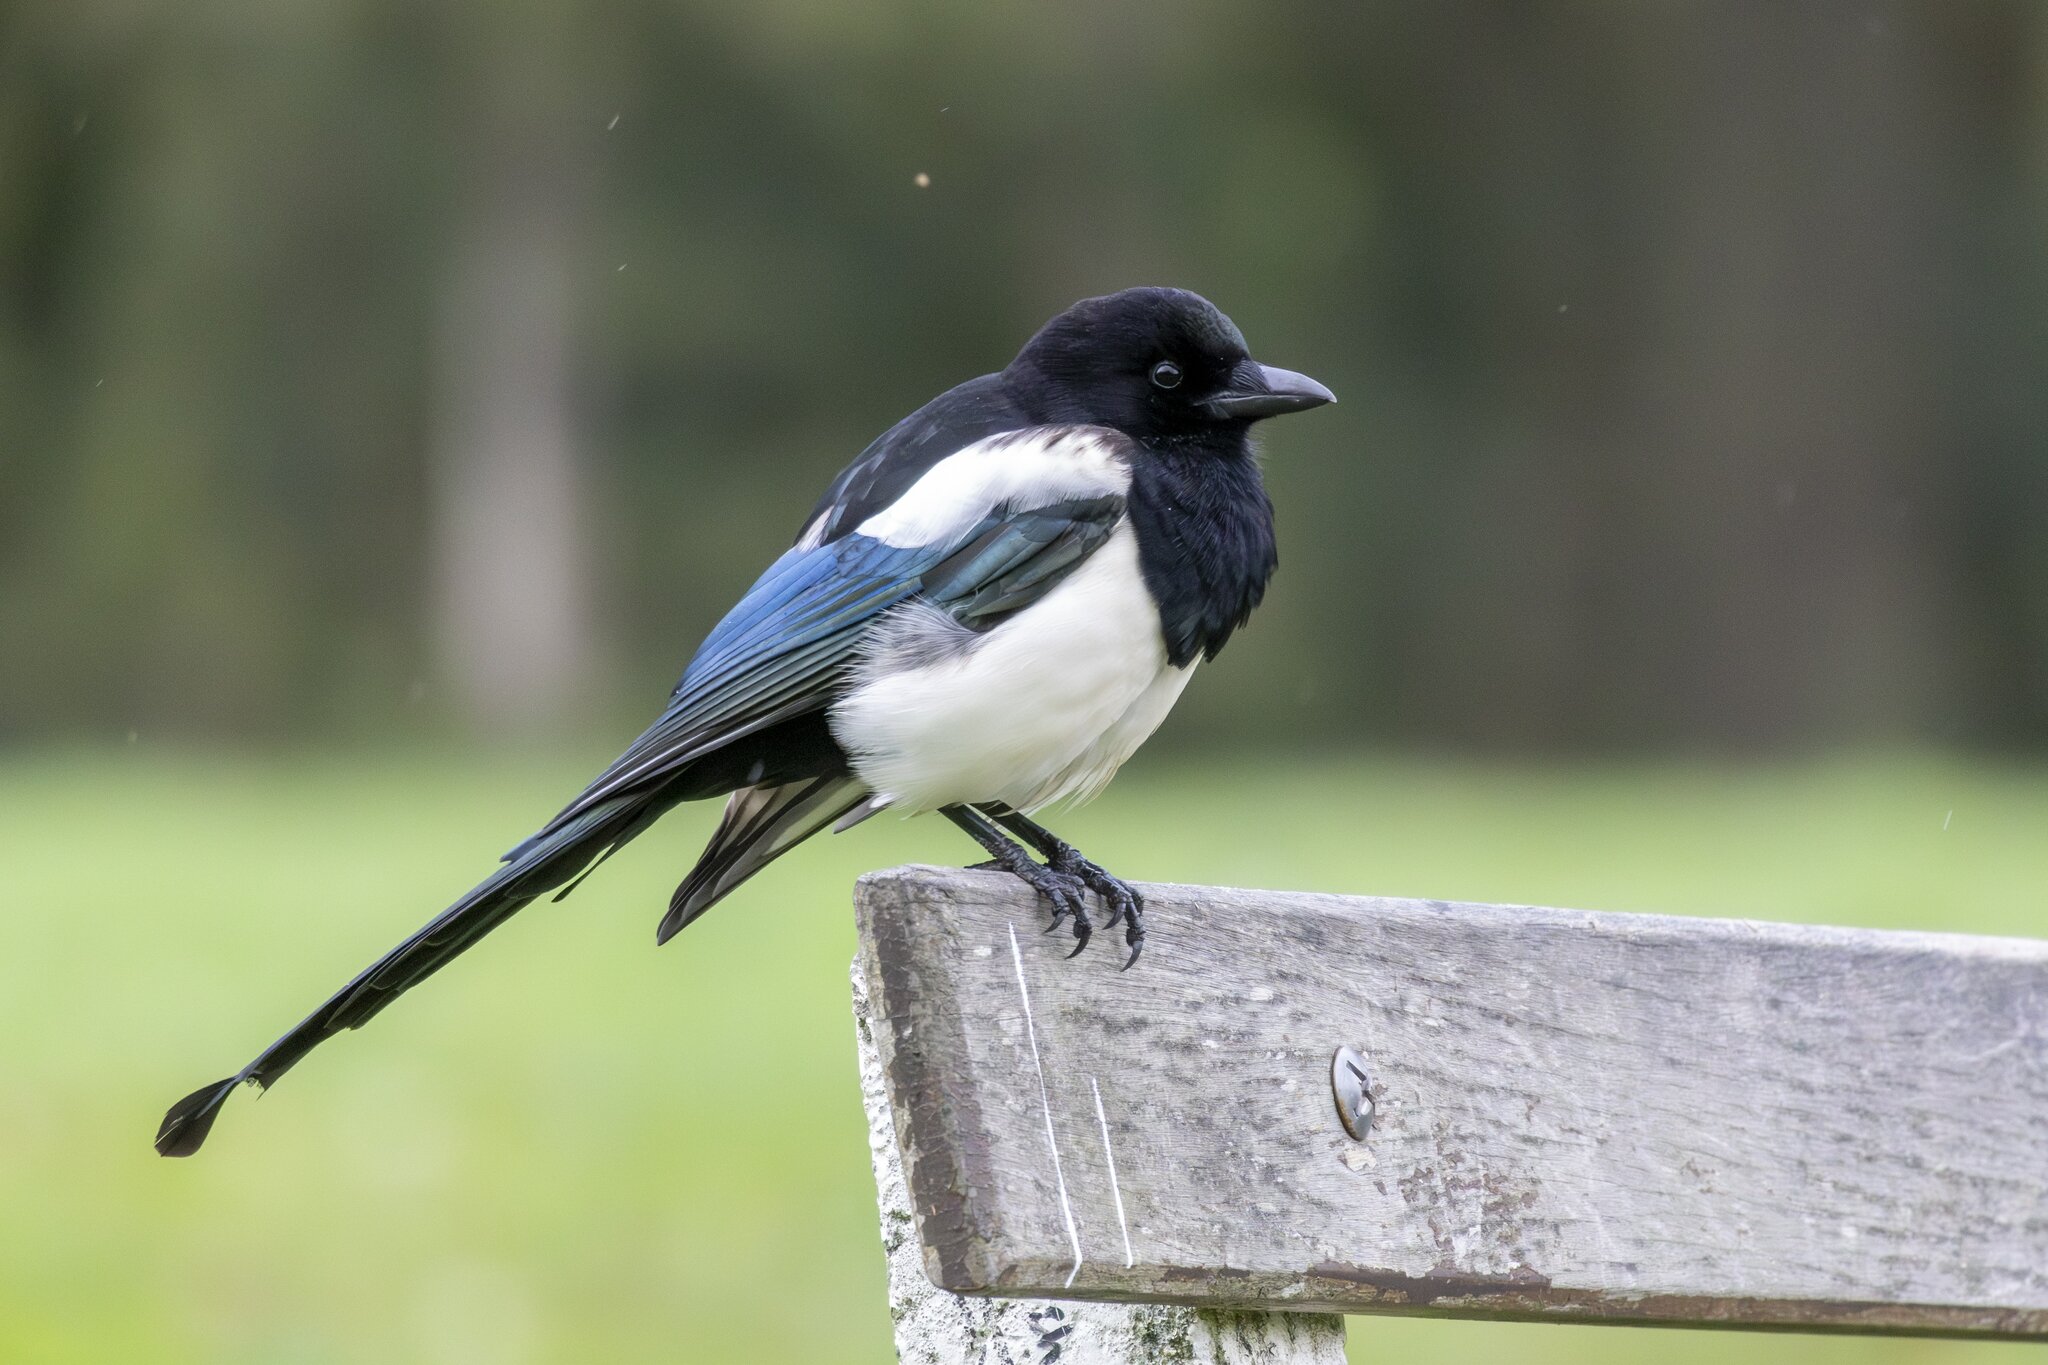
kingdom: Animalia
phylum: Chordata
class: Aves
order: Passeriformes
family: Corvidae
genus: Pica
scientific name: Pica pica
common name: Eurasian magpie
